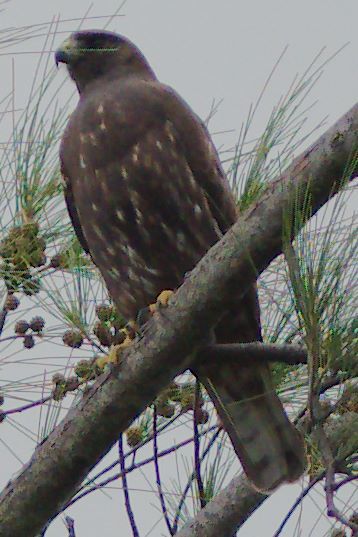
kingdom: Animalia
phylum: Chordata
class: Aves
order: Accipitriformes
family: Accipitridae
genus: Buteo
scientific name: Buteo brachyurus
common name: Short-tailed hawk
